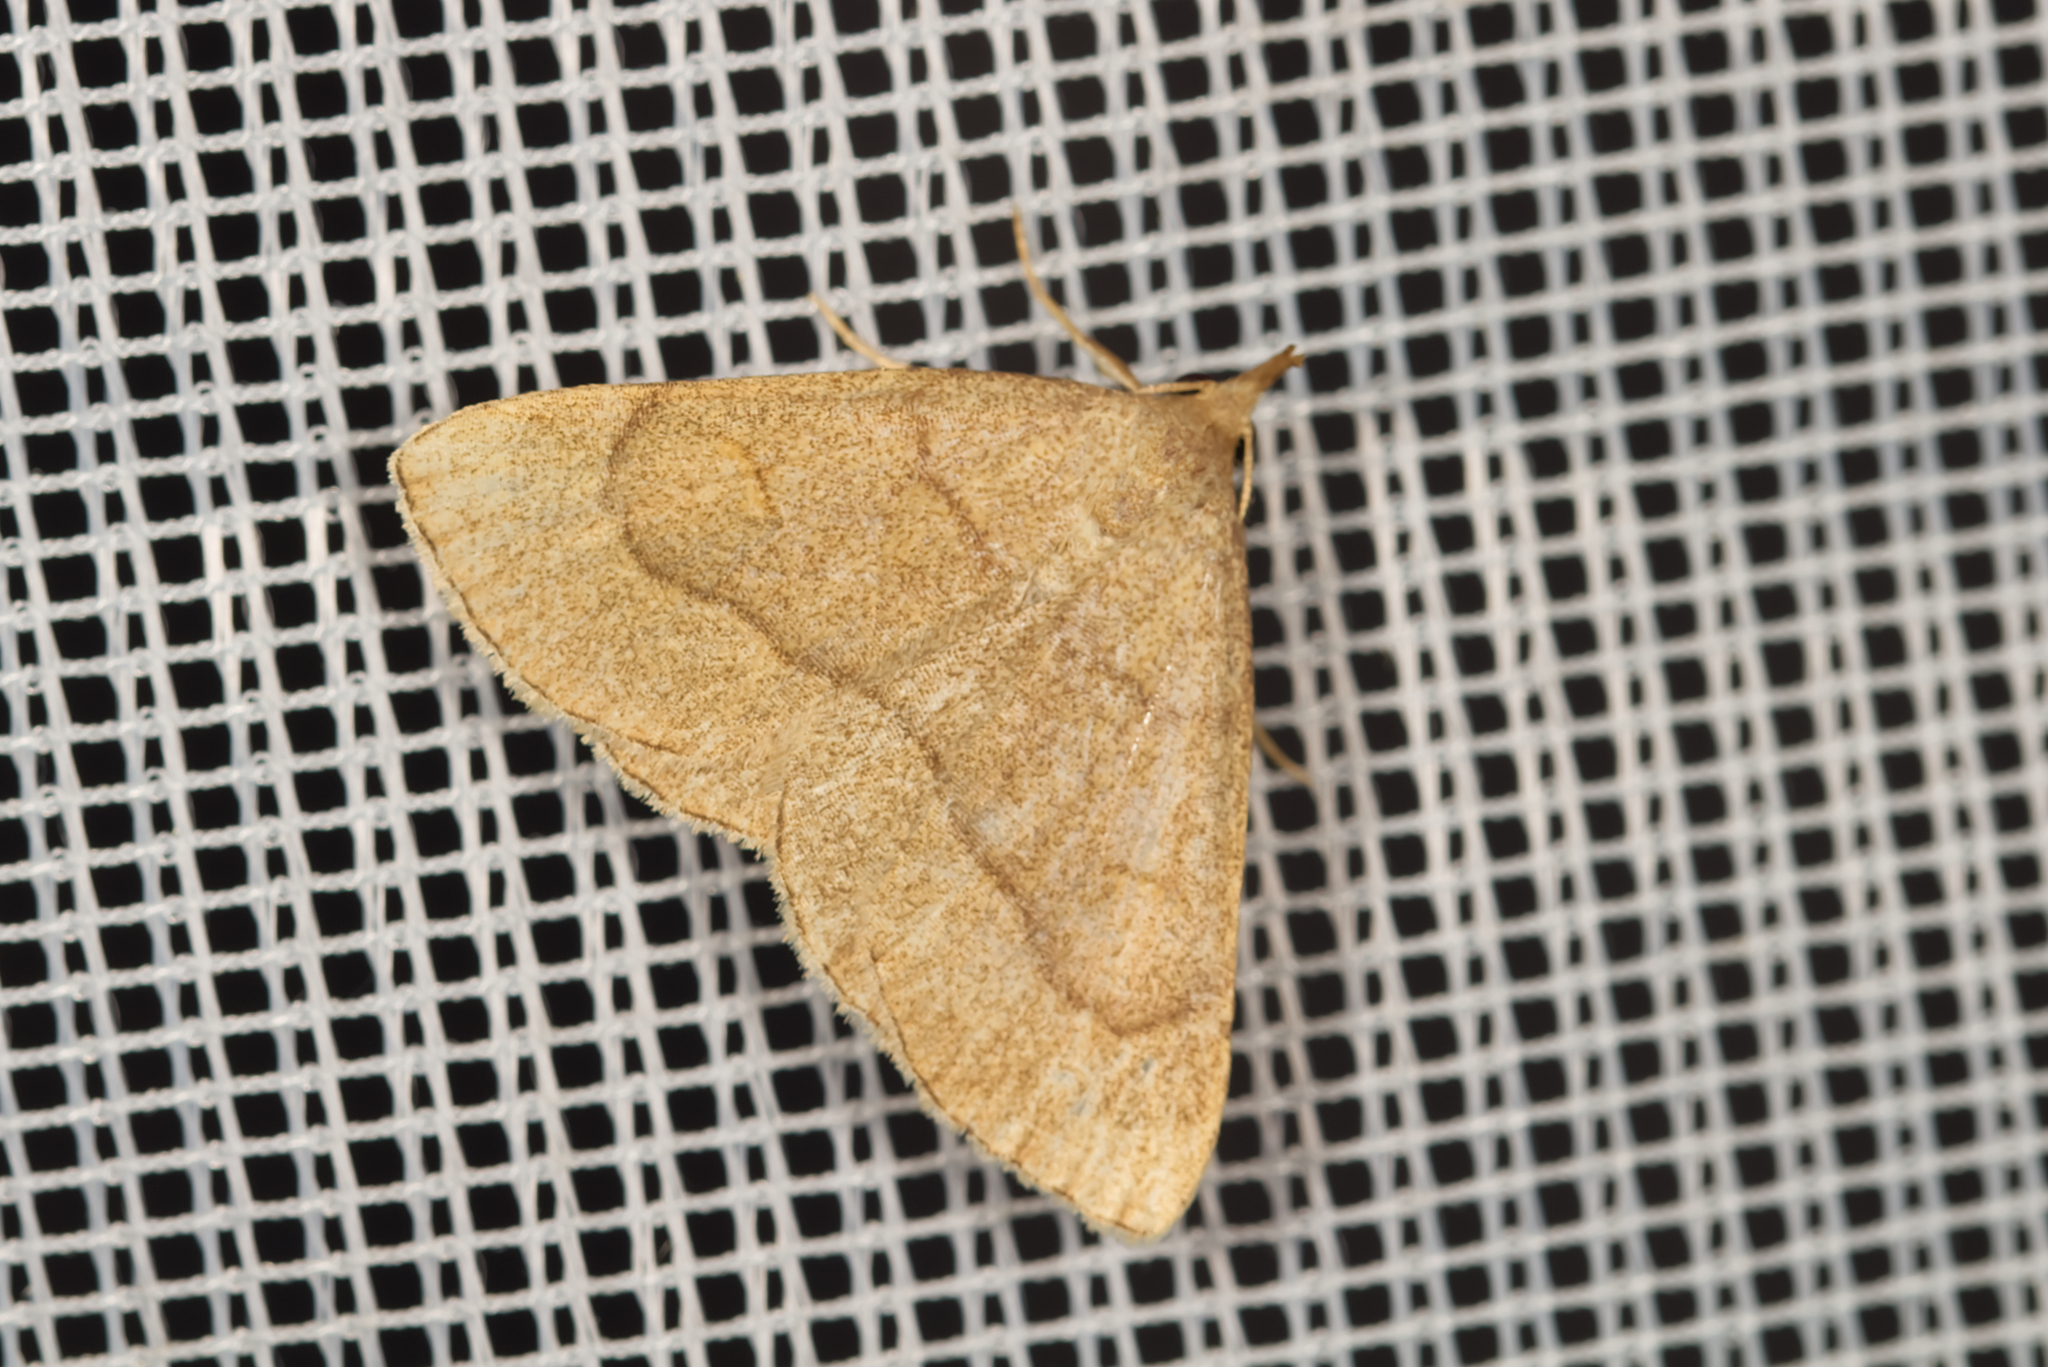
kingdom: Animalia
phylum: Arthropoda
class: Insecta
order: Lepidoptera
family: Erebidae
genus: Paracolax
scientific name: Paracolax tristalis
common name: Clay fan-foot
